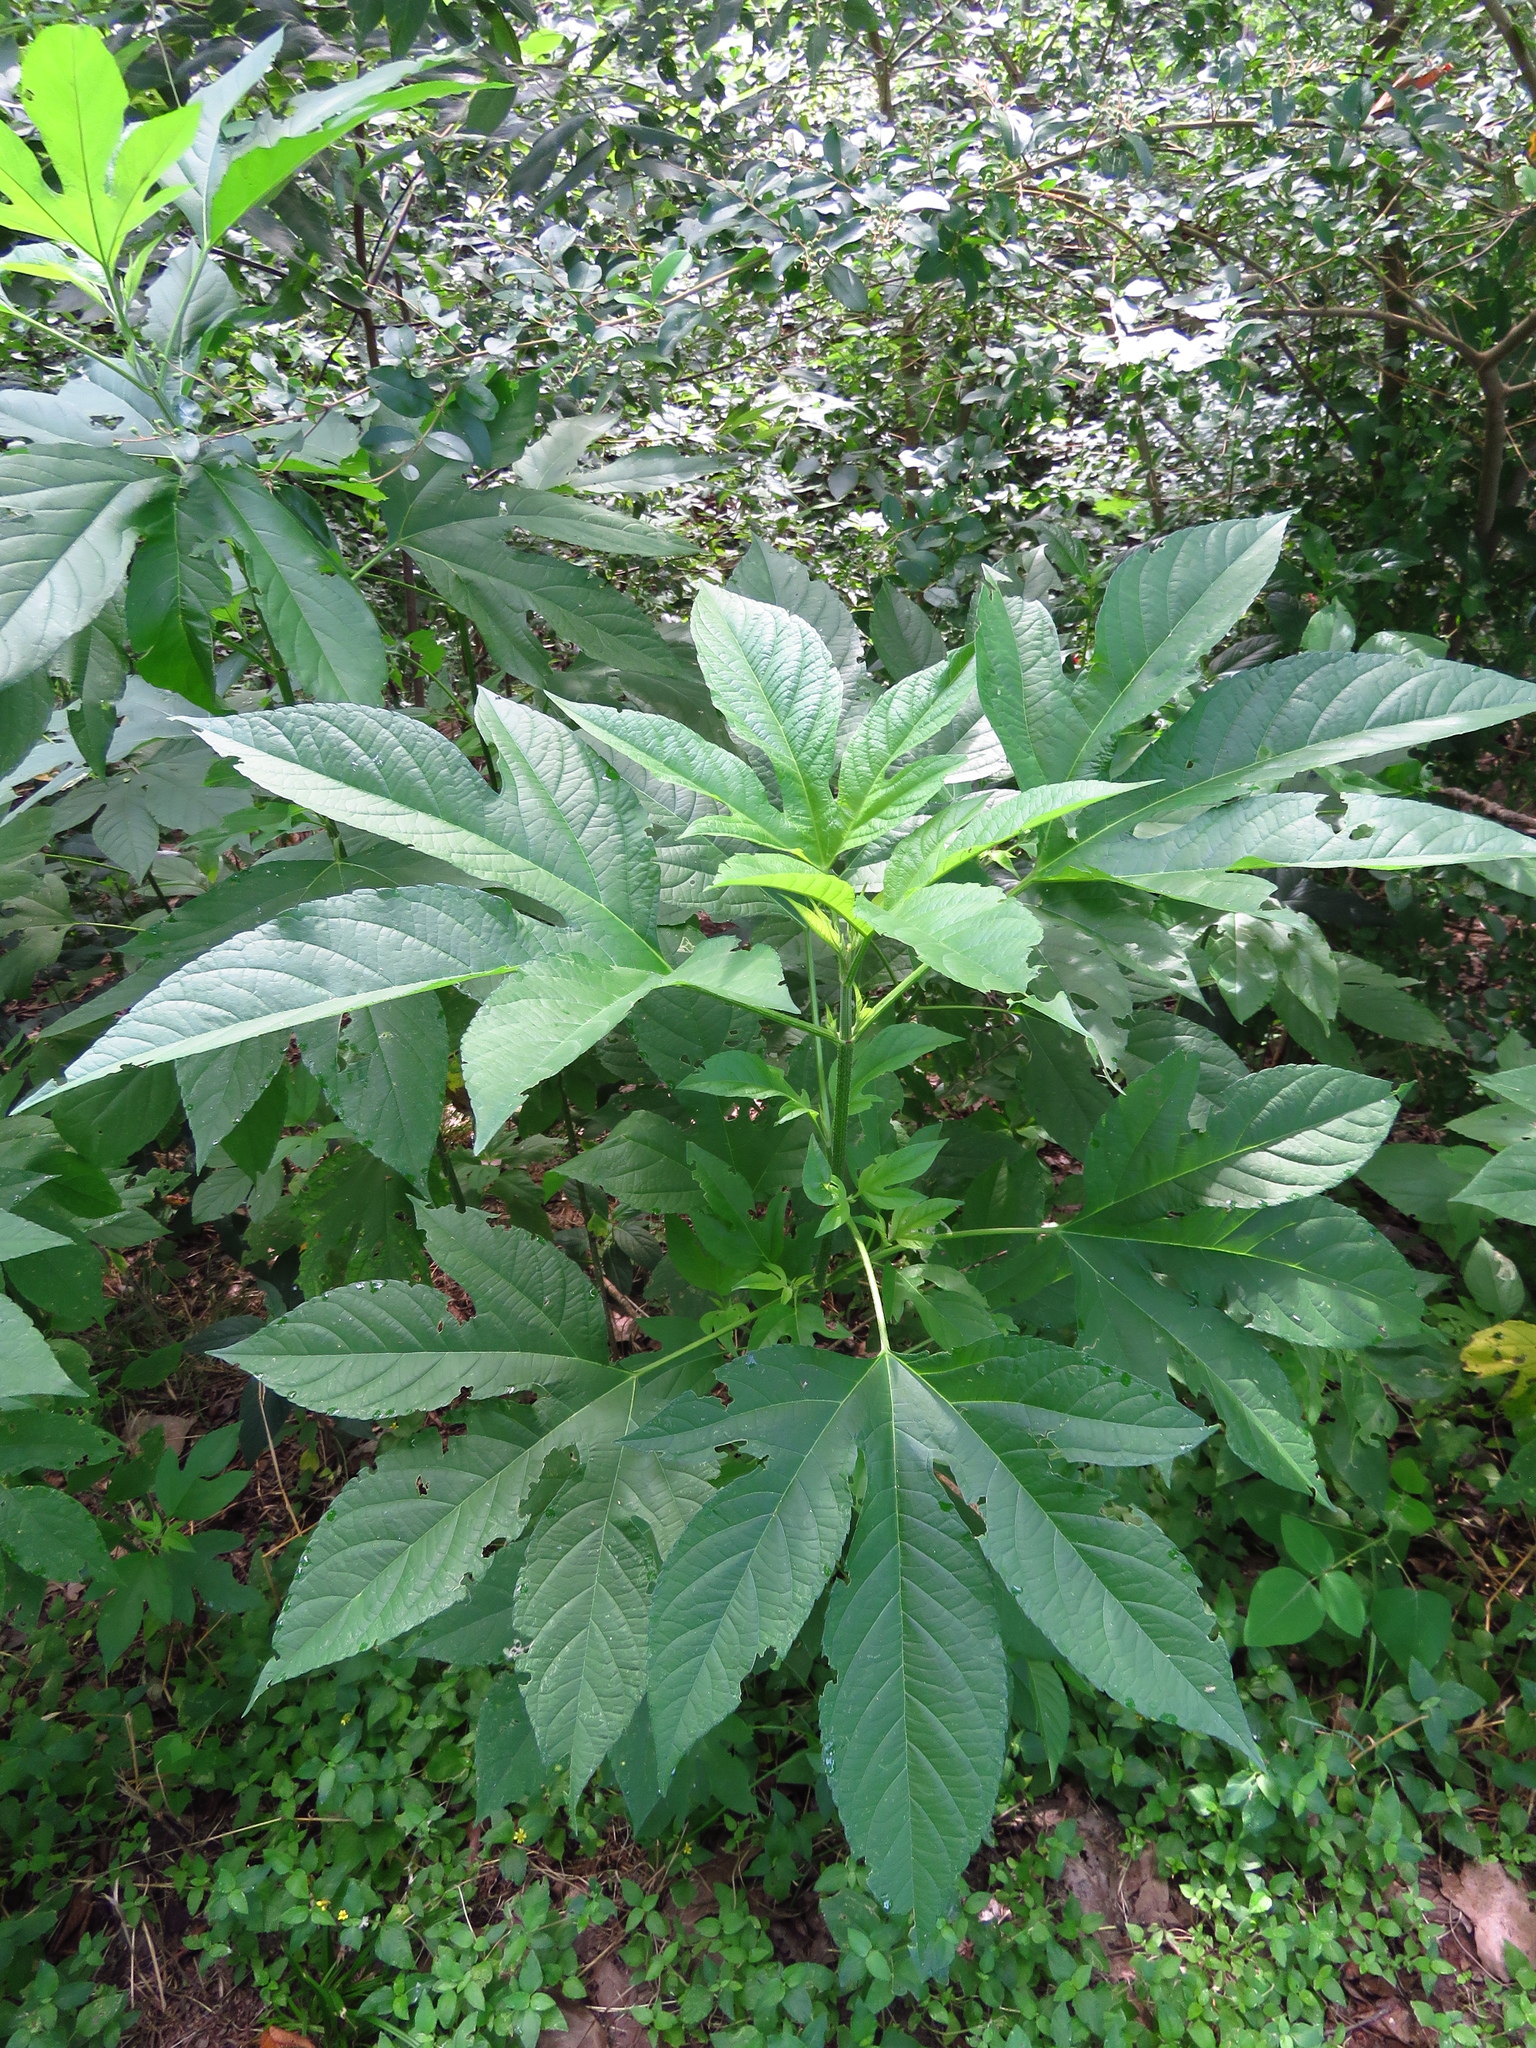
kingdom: Plantae
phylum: Tracheophyta
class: Magnoliopsida
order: Asterales
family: Asteraceae
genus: Ambrosia
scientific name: Ambrosia trifida
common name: Giant ragweed
